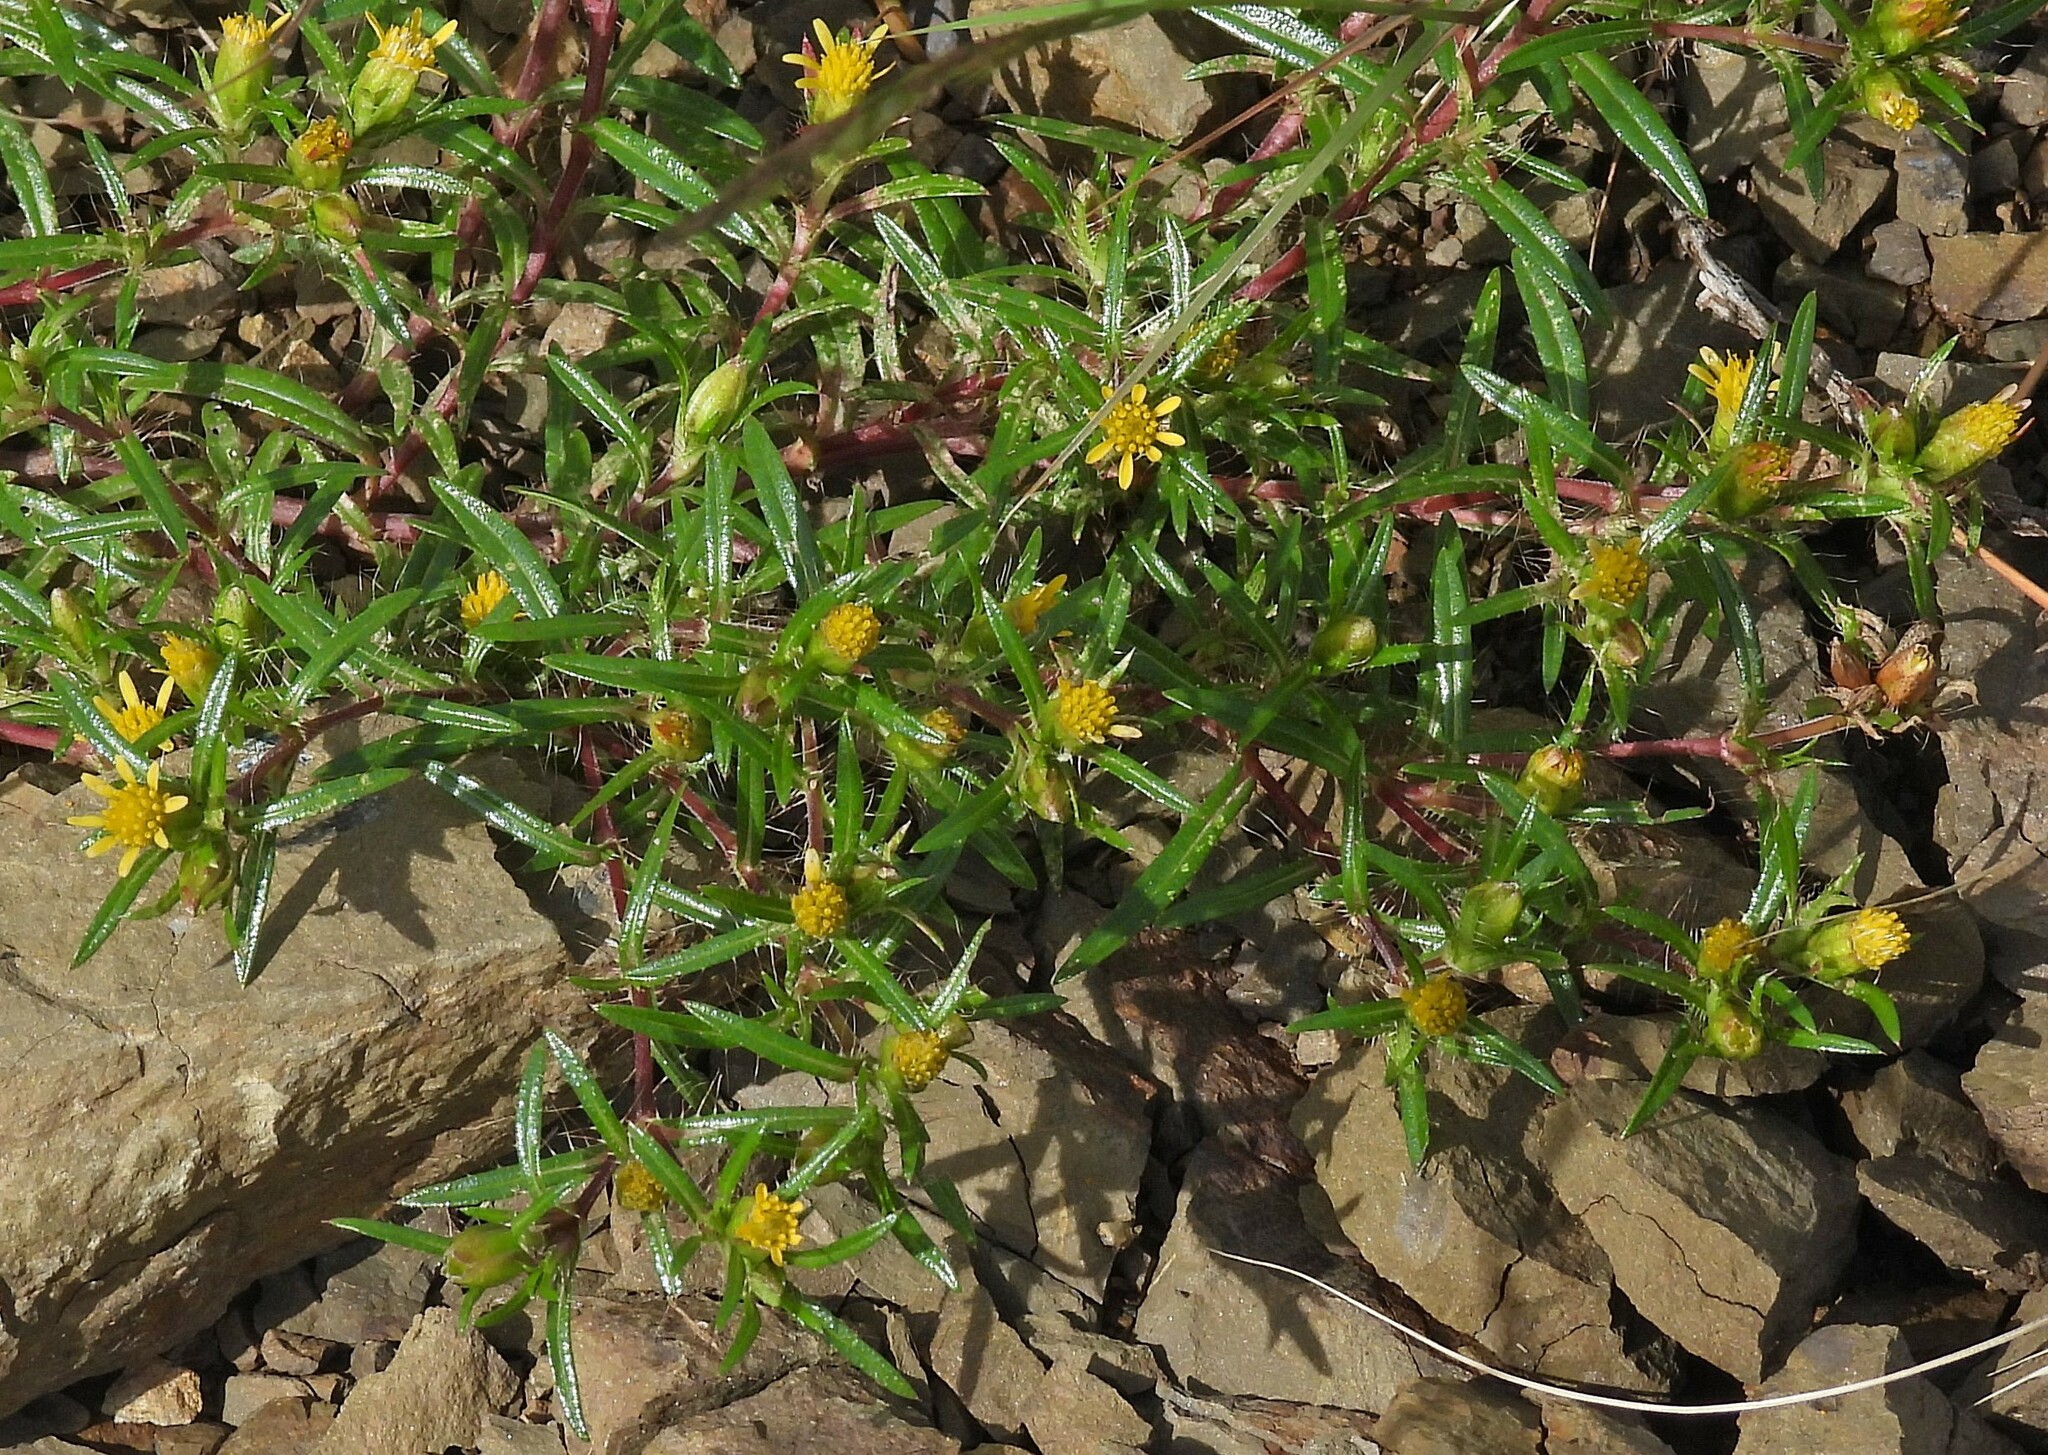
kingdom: Plantae
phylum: Tracheophyta
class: Magnoliopsida
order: Asterales
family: Asteraceae
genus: Pectis
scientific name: Pectis sessiliflora
